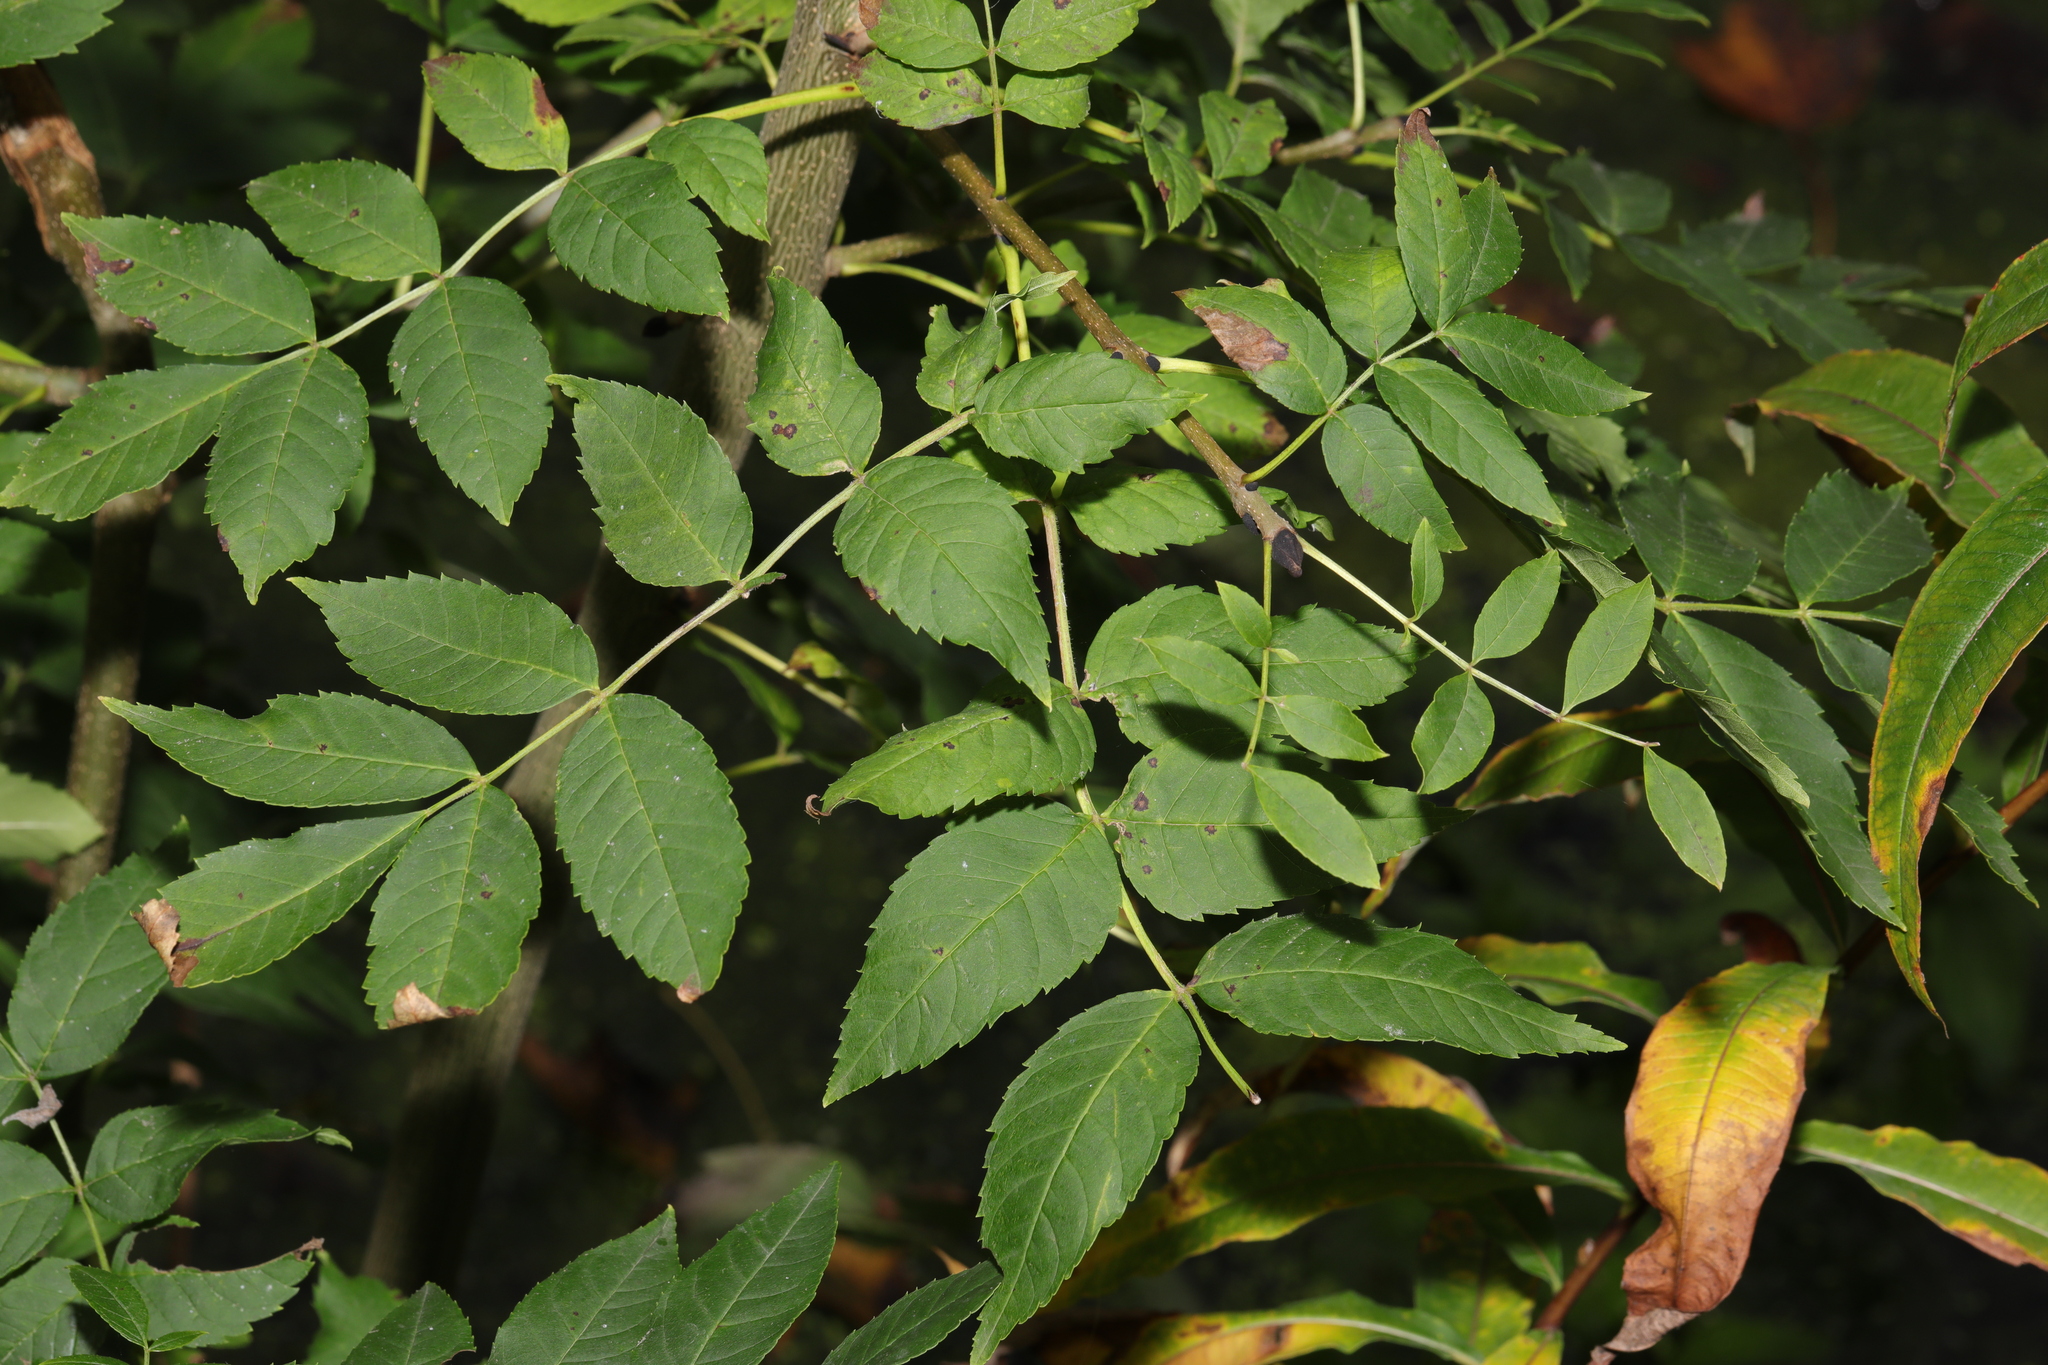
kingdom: Plantae
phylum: Tracheophyta
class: Magnoliopsida
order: Lamiales
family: Oleaceae
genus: Fraxinus
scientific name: Fraxinus excelsior
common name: European ash
